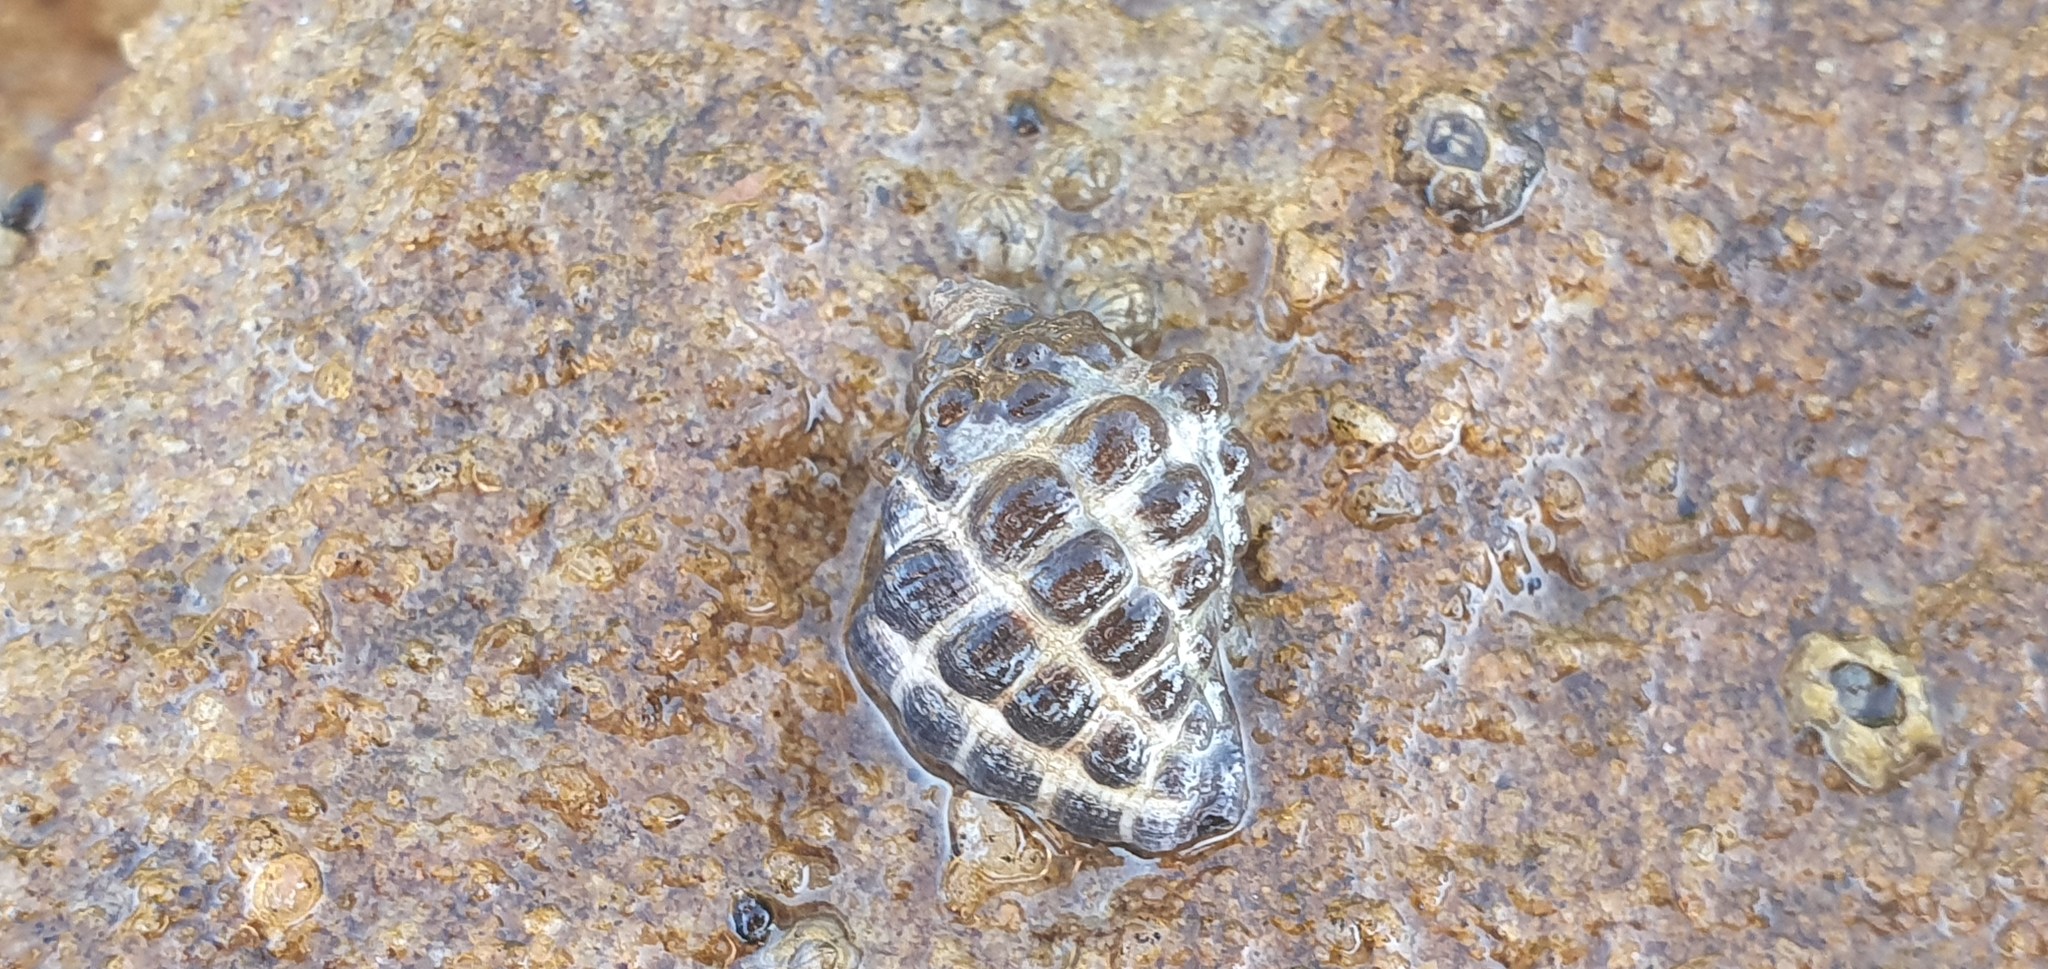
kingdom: Animalia
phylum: Mollusca
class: Gastropoda
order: Neogastropoda
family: Muricidae
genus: Tenguella
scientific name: Tenguella marginalba
